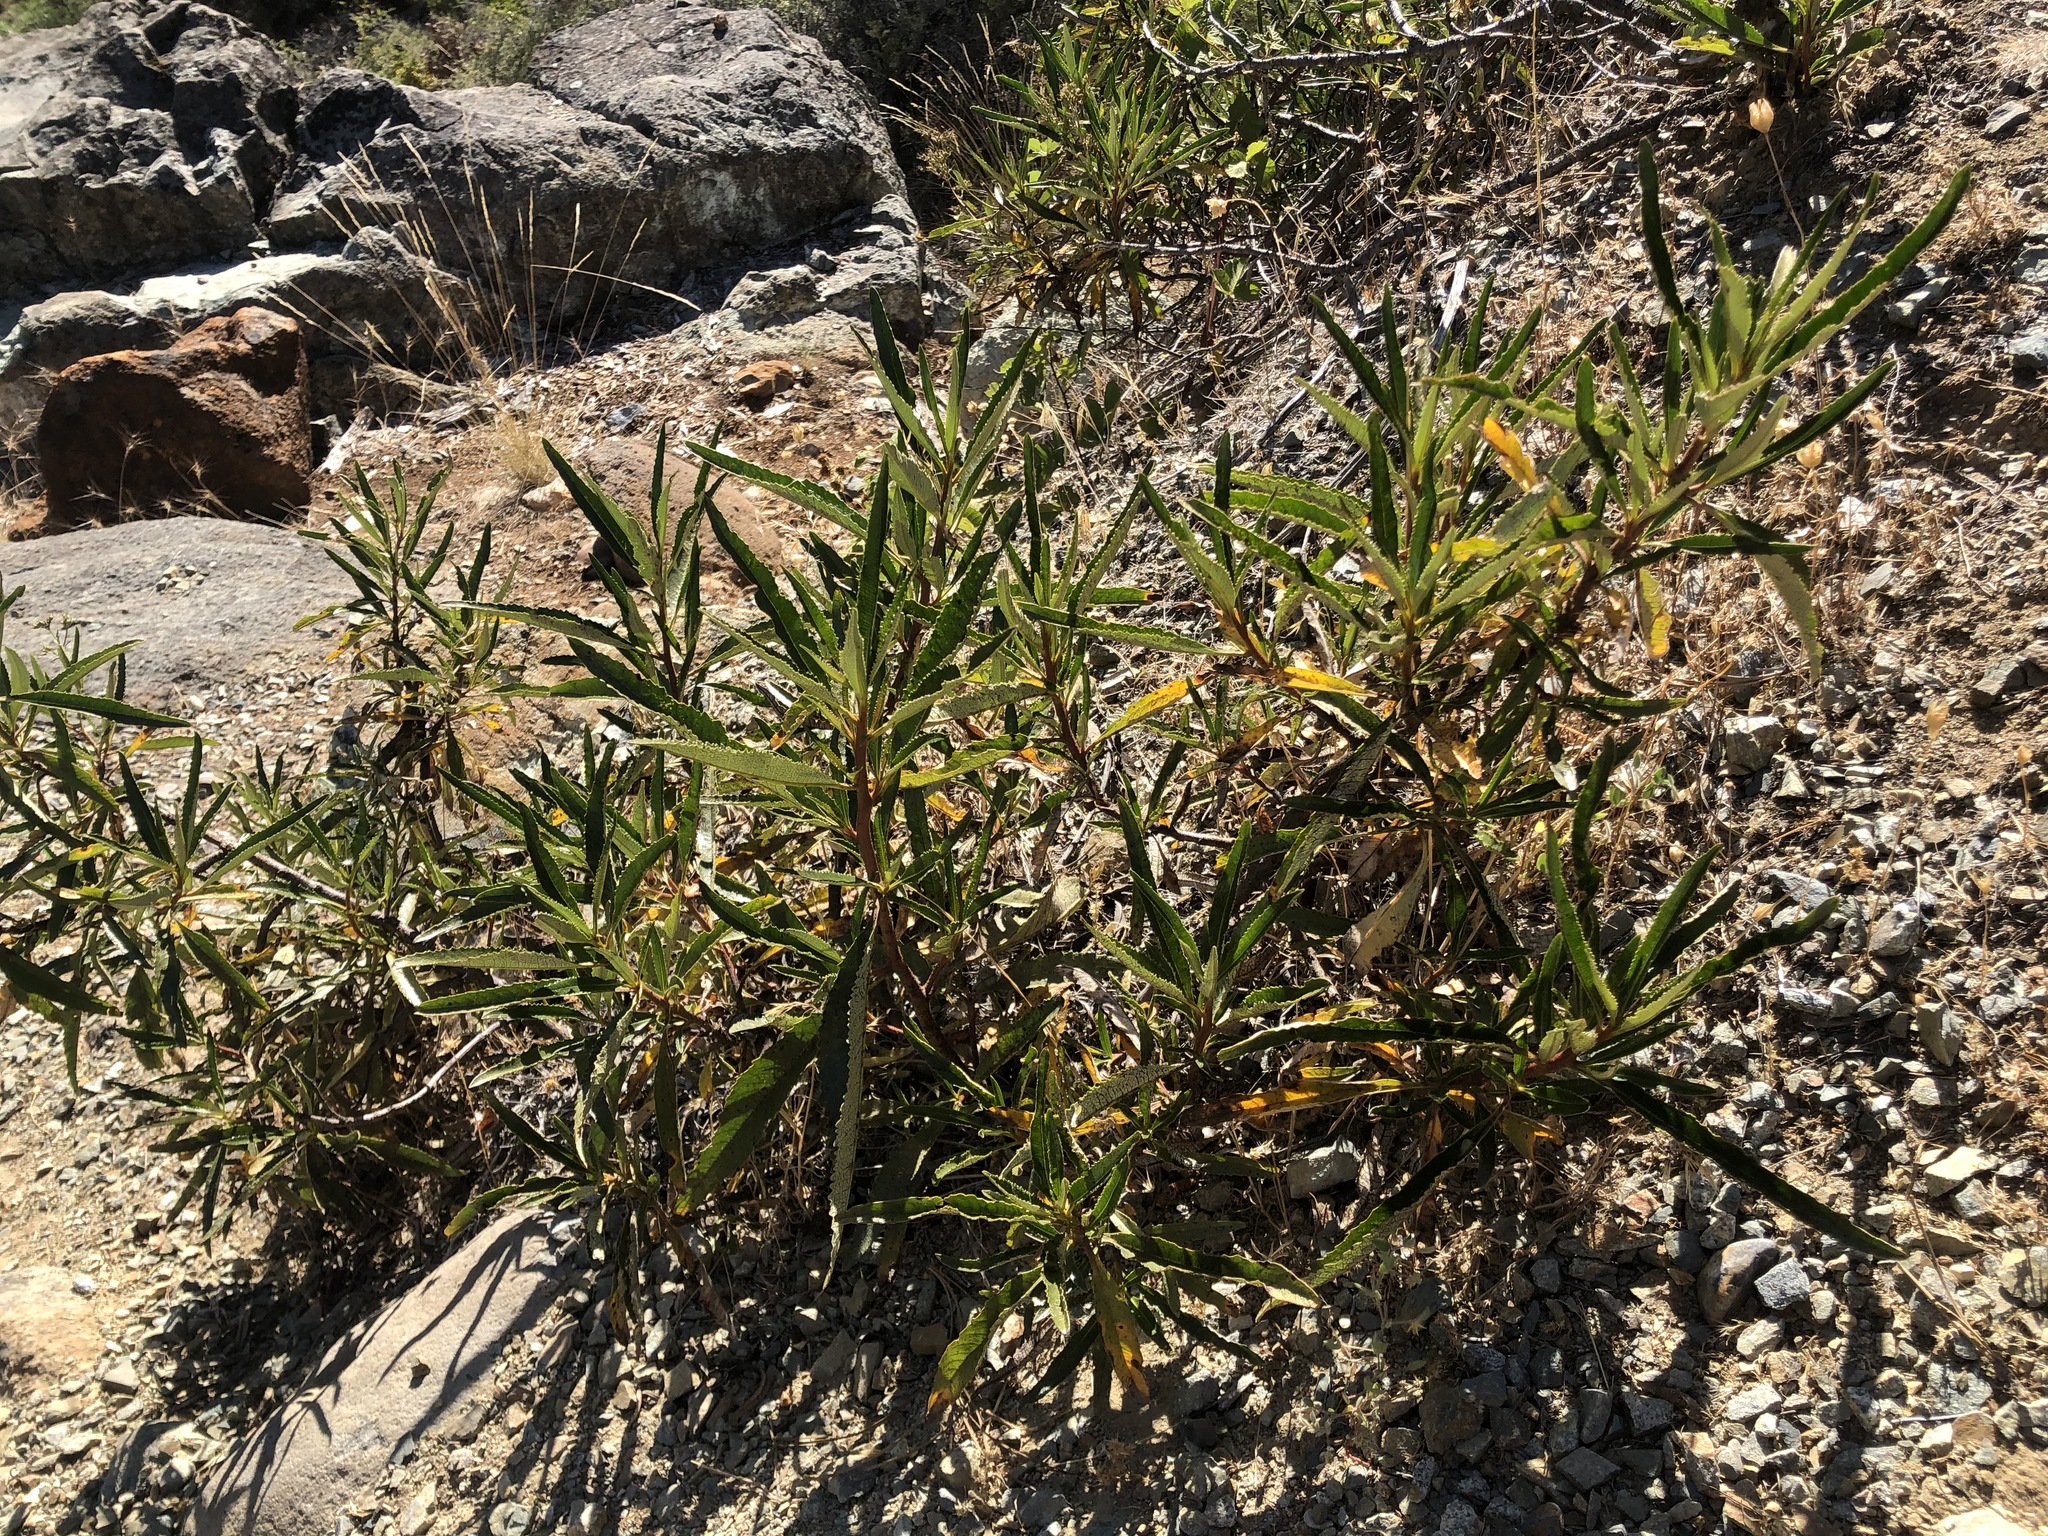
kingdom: Plantae
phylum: Tracheophyta
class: Magnoliopsida
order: Boraginales
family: Namaceae
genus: Eriodictyon
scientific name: Eriodictyon californicum
